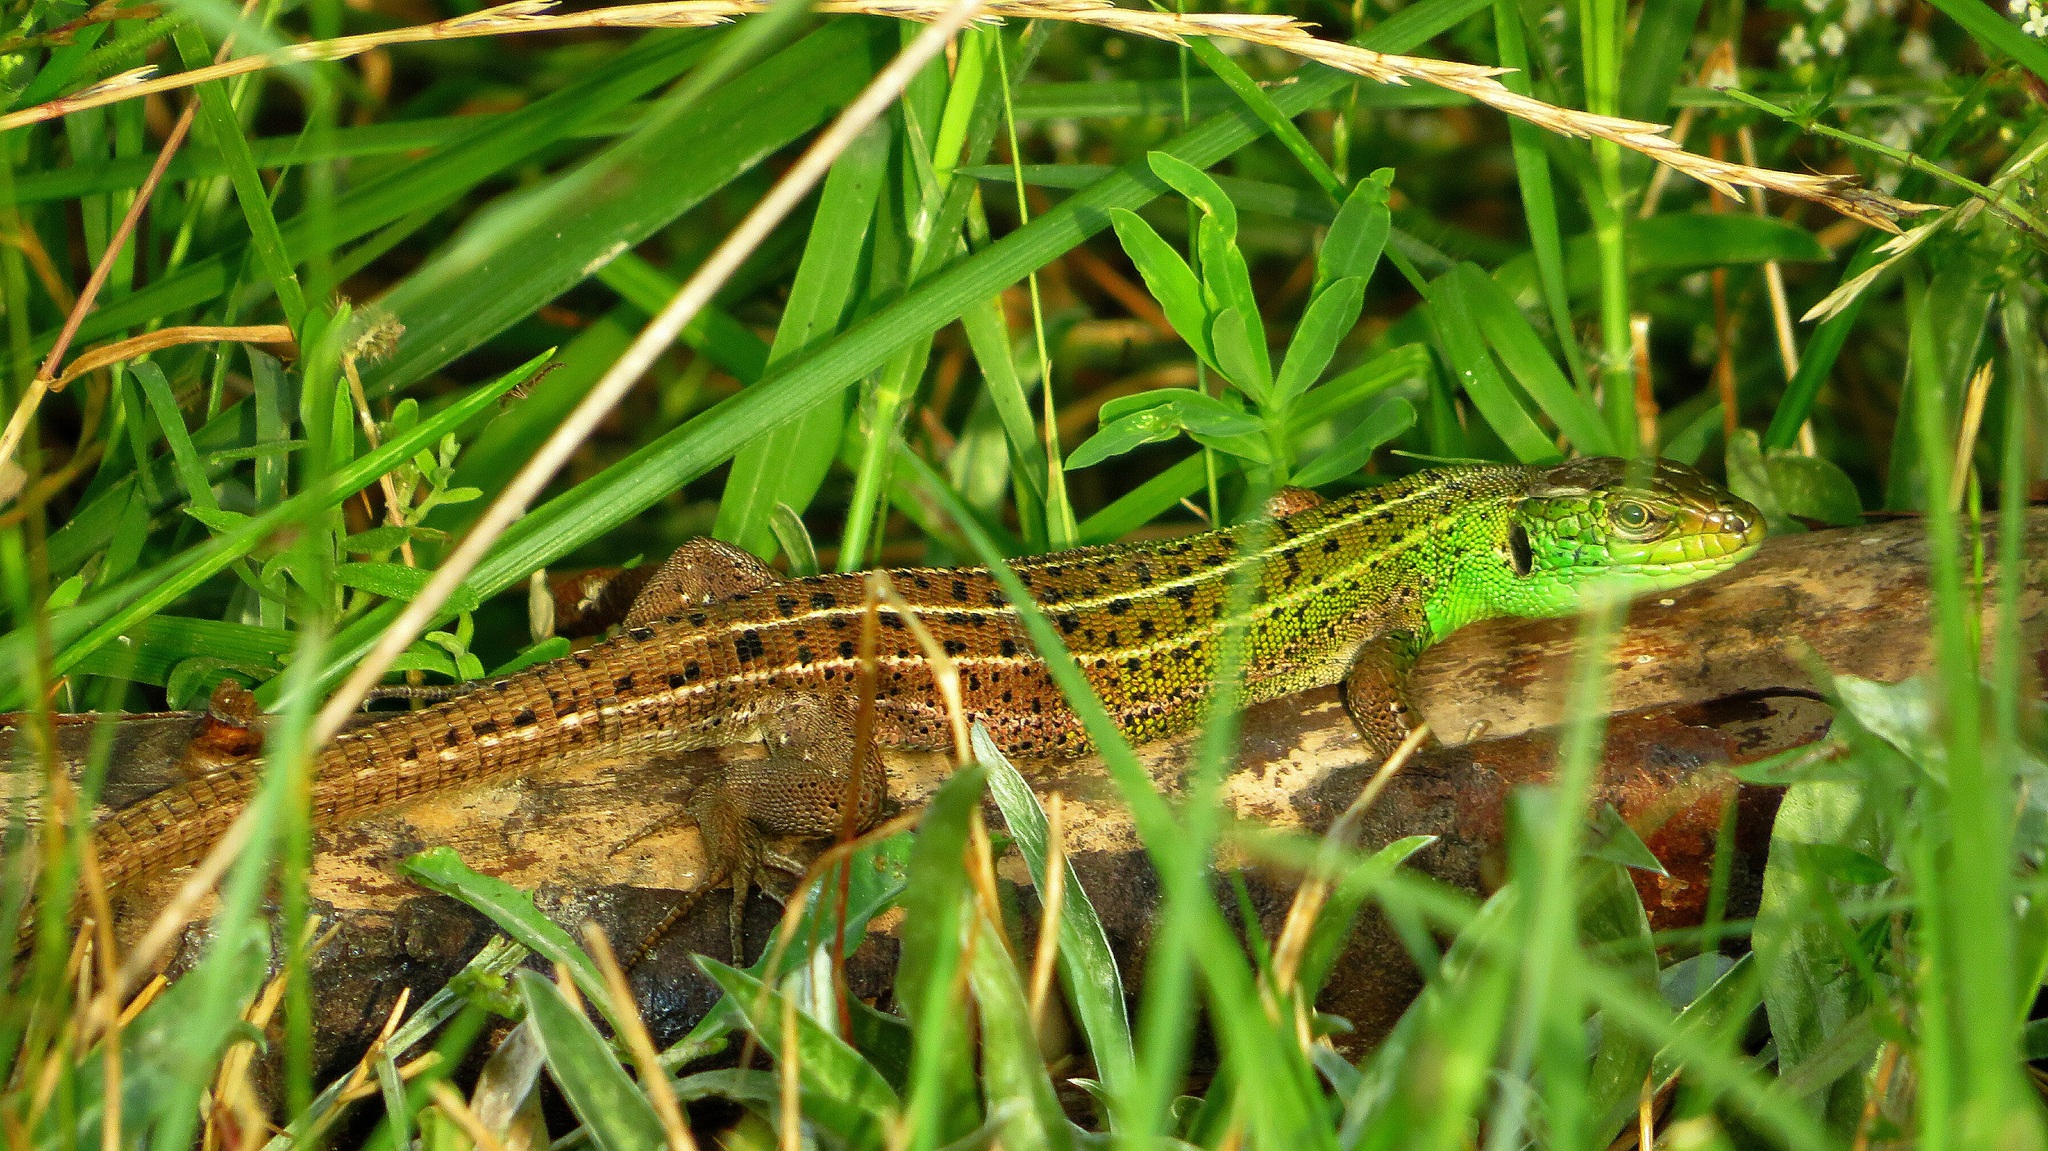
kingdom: Animalia
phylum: Chordata
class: Squamata
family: Lacertidae
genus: Lacerta
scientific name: Lacerta strigata
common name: Caspian green lizard
